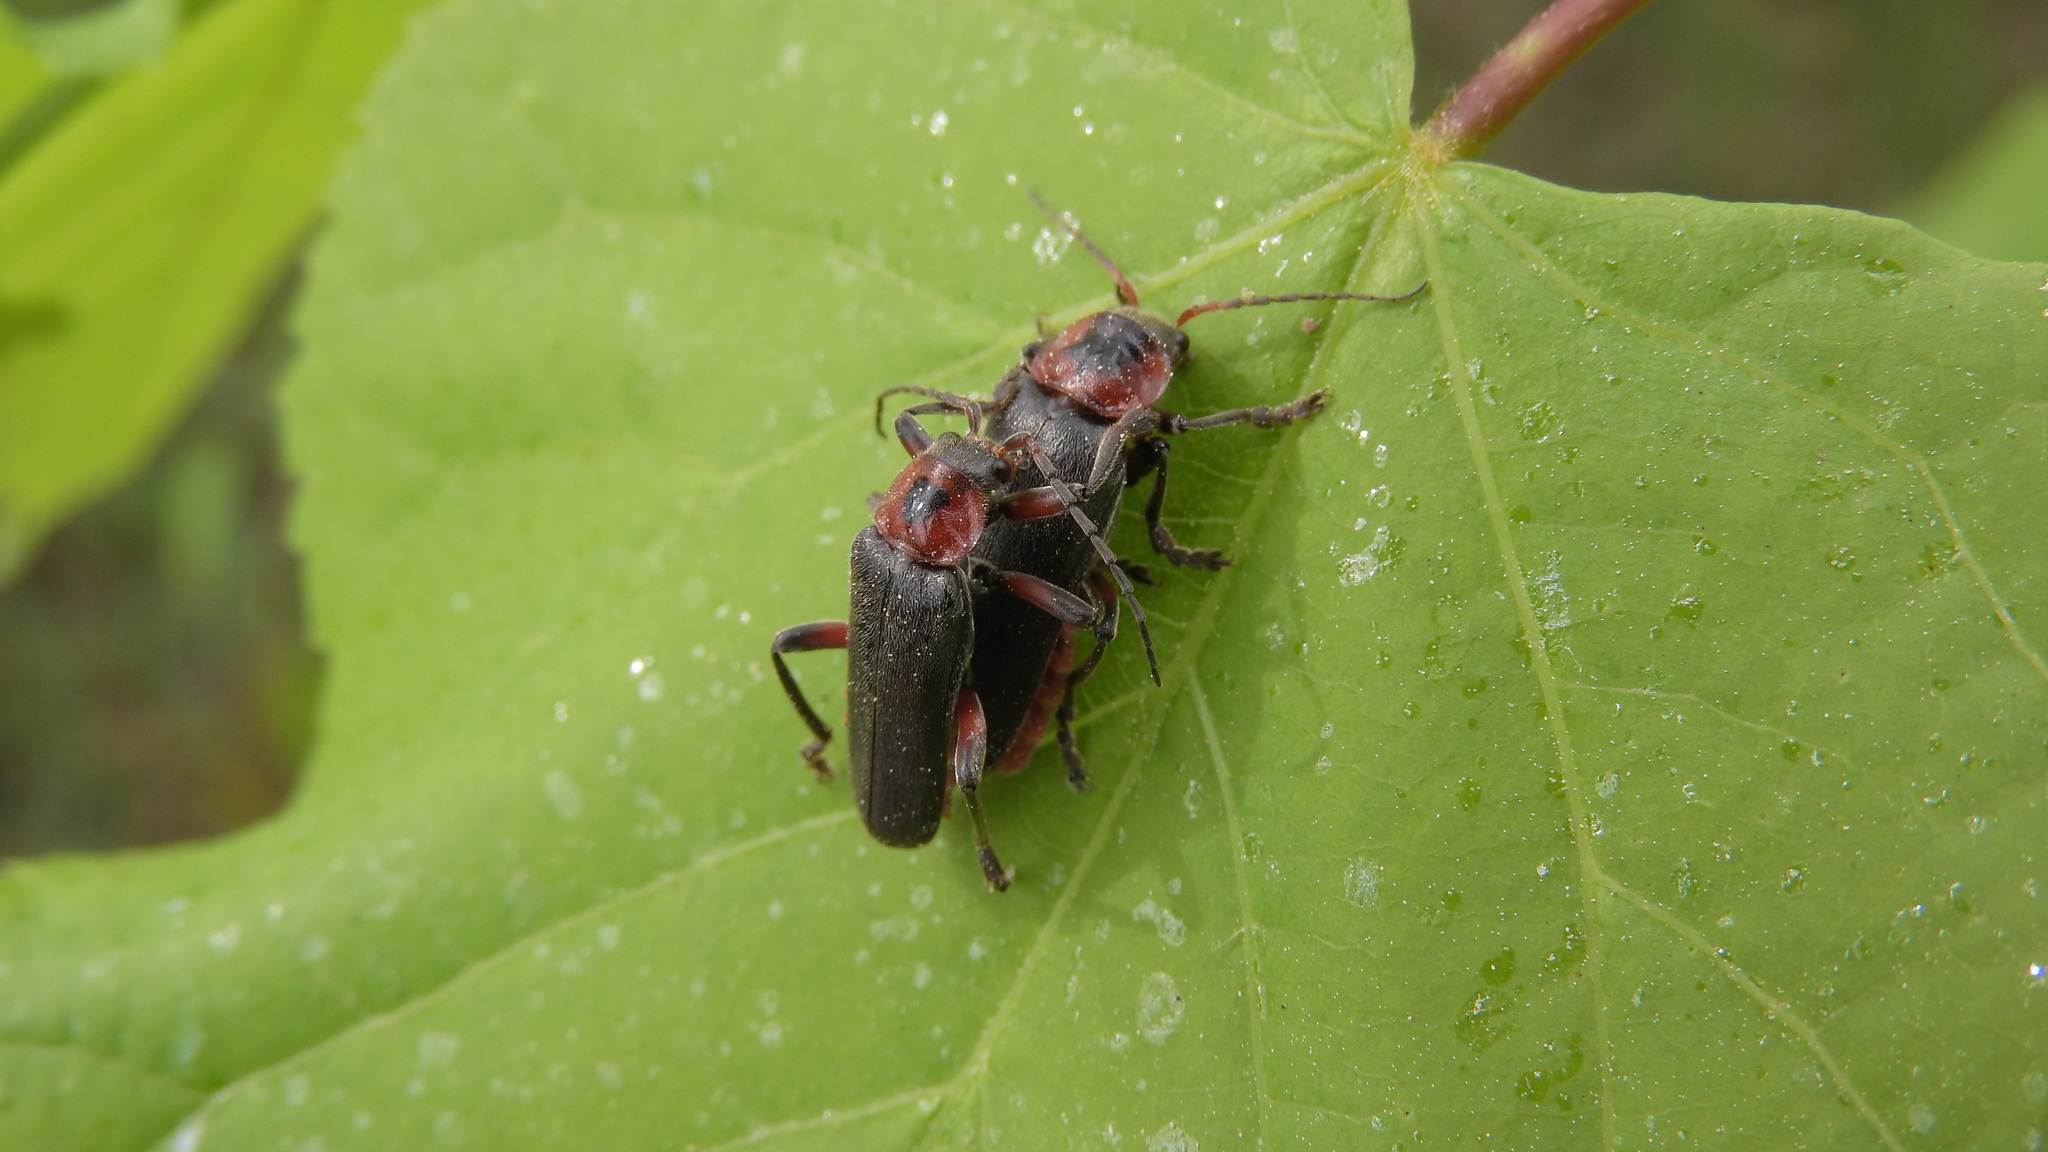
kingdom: Animalia
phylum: Arthropoda
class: Insecta
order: Coleoptera
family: Cantharidae
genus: Cantharis
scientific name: Cantharis rustica
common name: Soldier beetle
